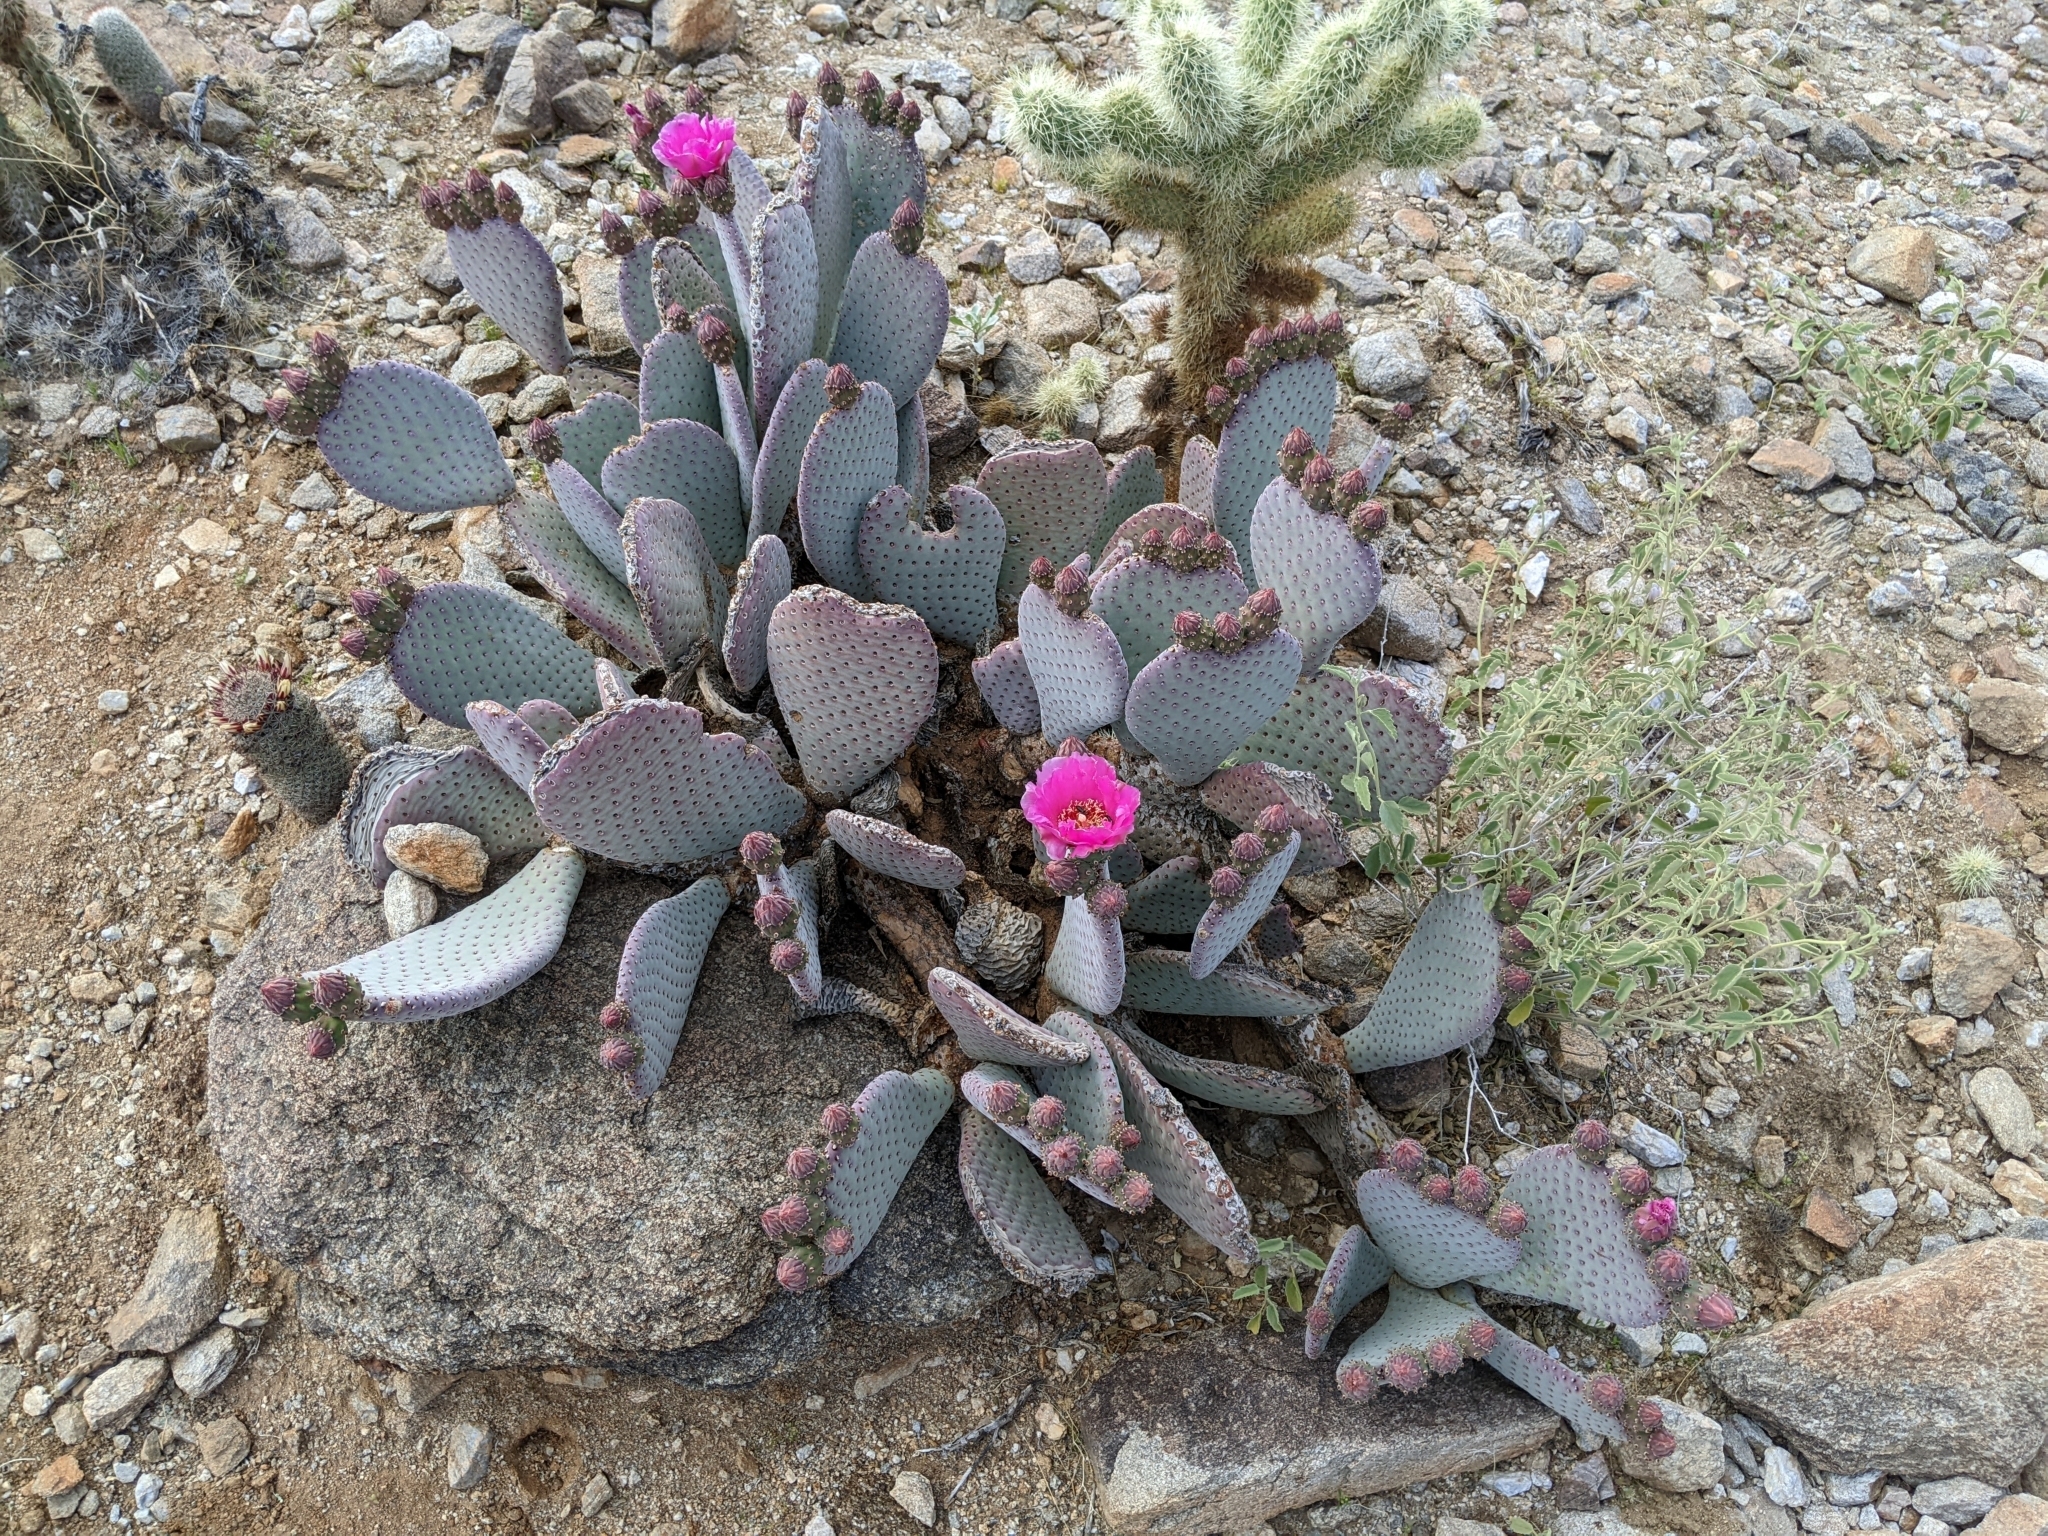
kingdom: Plantae
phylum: Tracheophyta
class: Magnoliopsida
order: Caryophyllales
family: Cactaceae
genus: Opuntia
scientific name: Opuntia basilaris
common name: Beavertail prickly-pear
